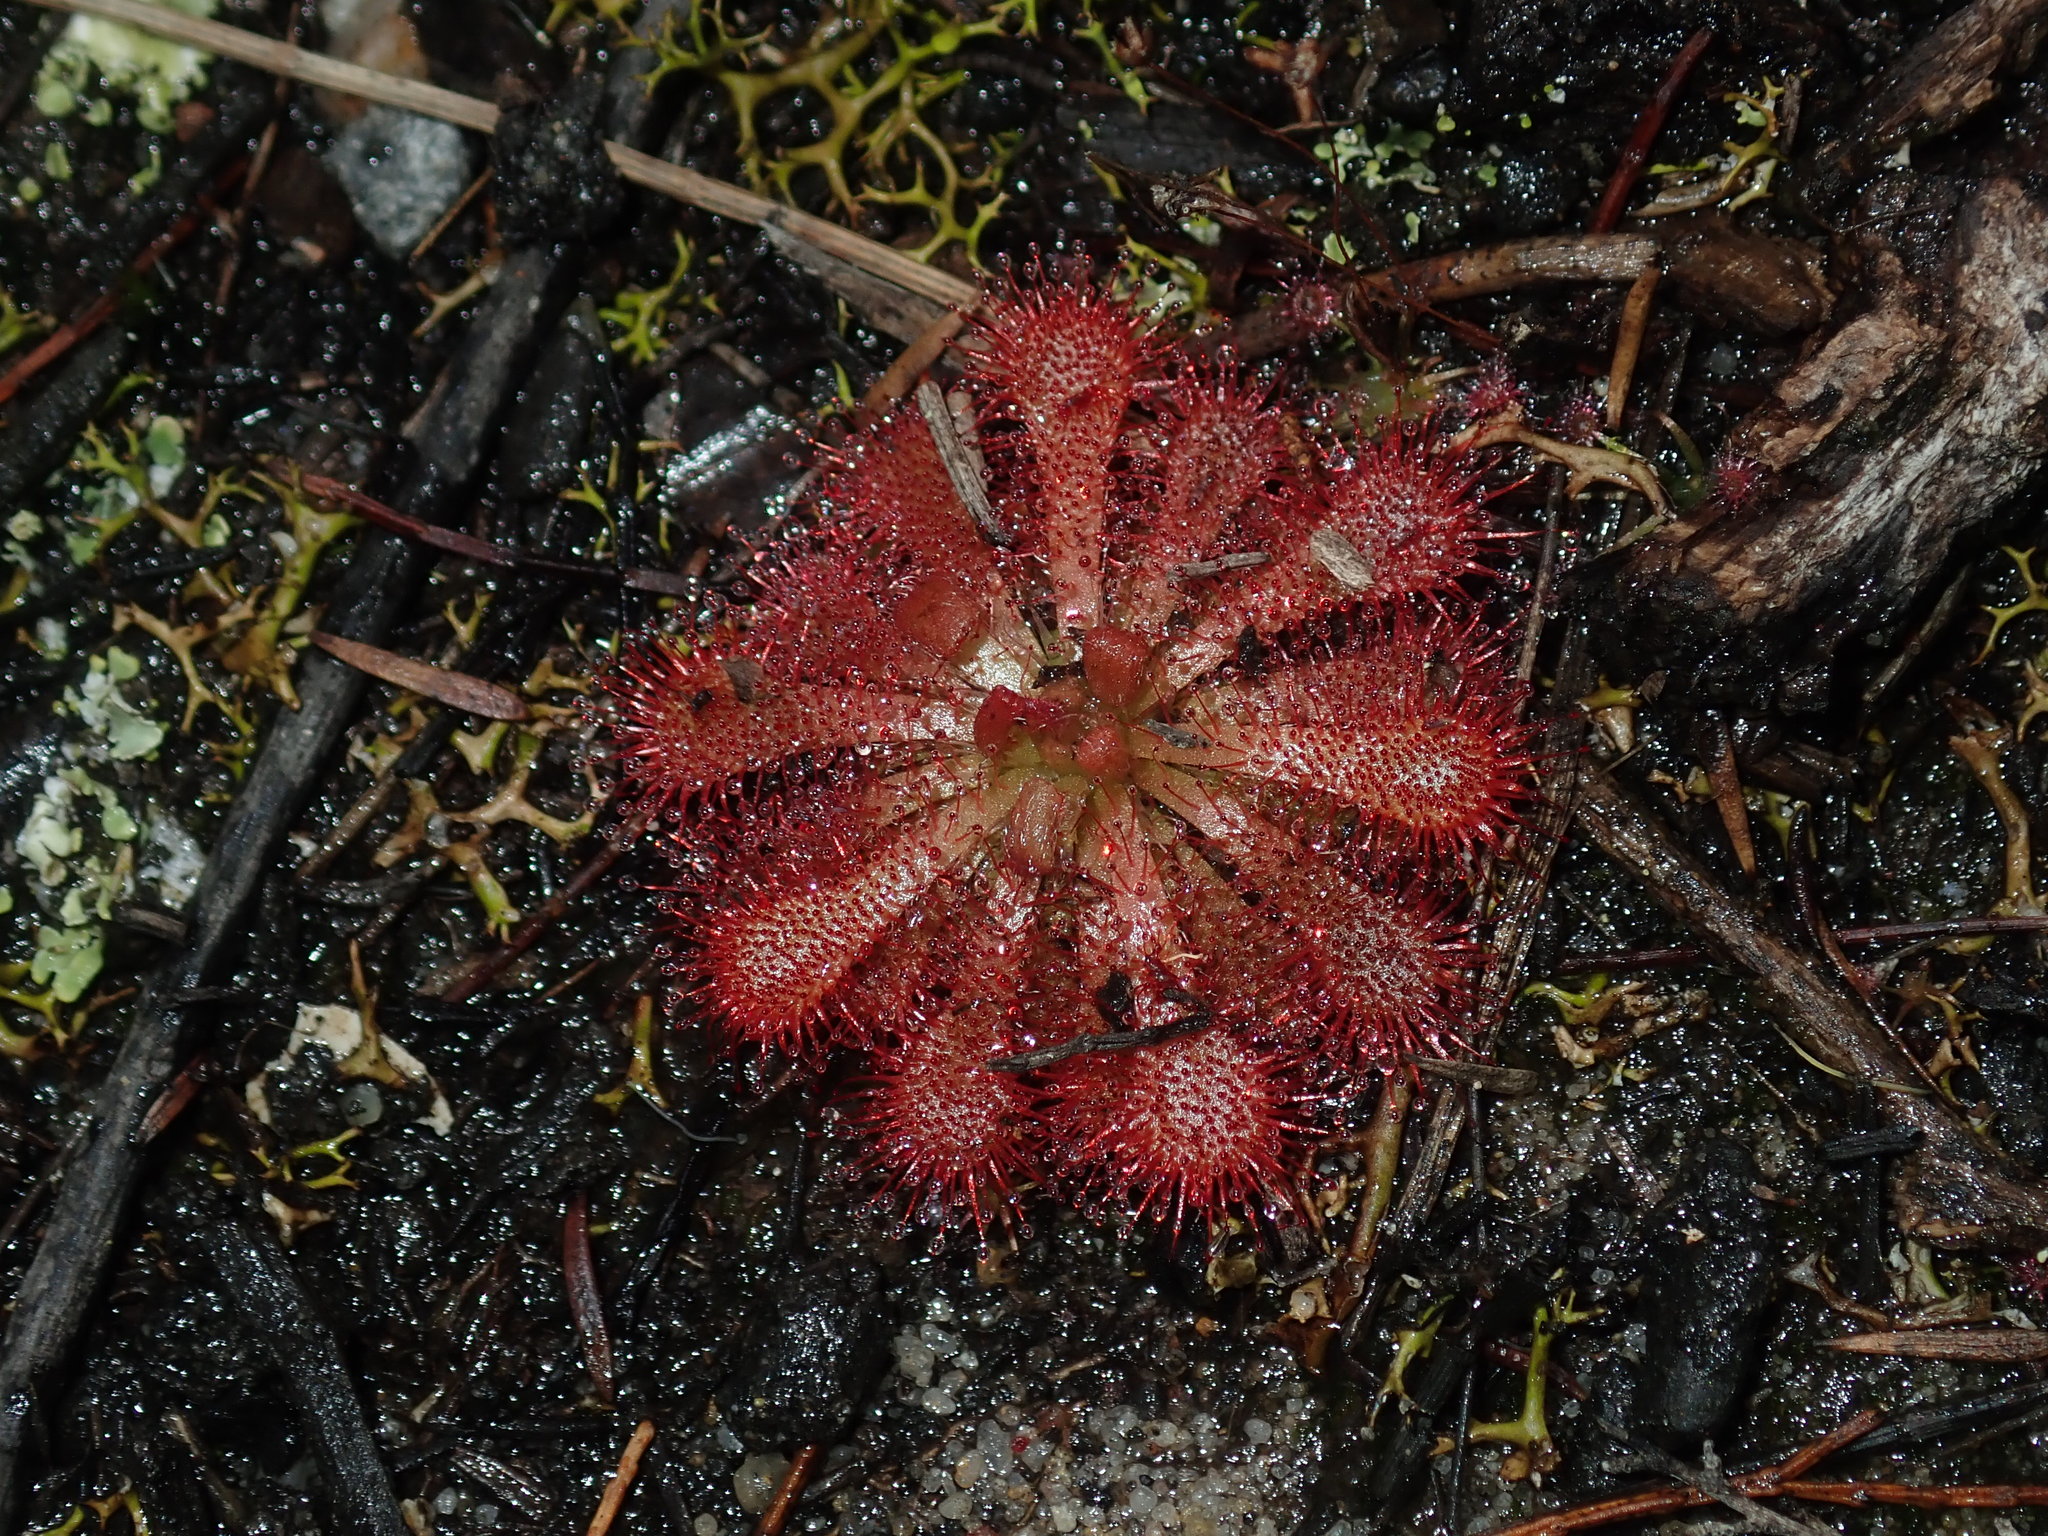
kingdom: Plantae
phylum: Tracheophyta
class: Magnoliopsida
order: Caryophyllales
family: Droseraceae
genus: Drosera
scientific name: Drosera spatulata
